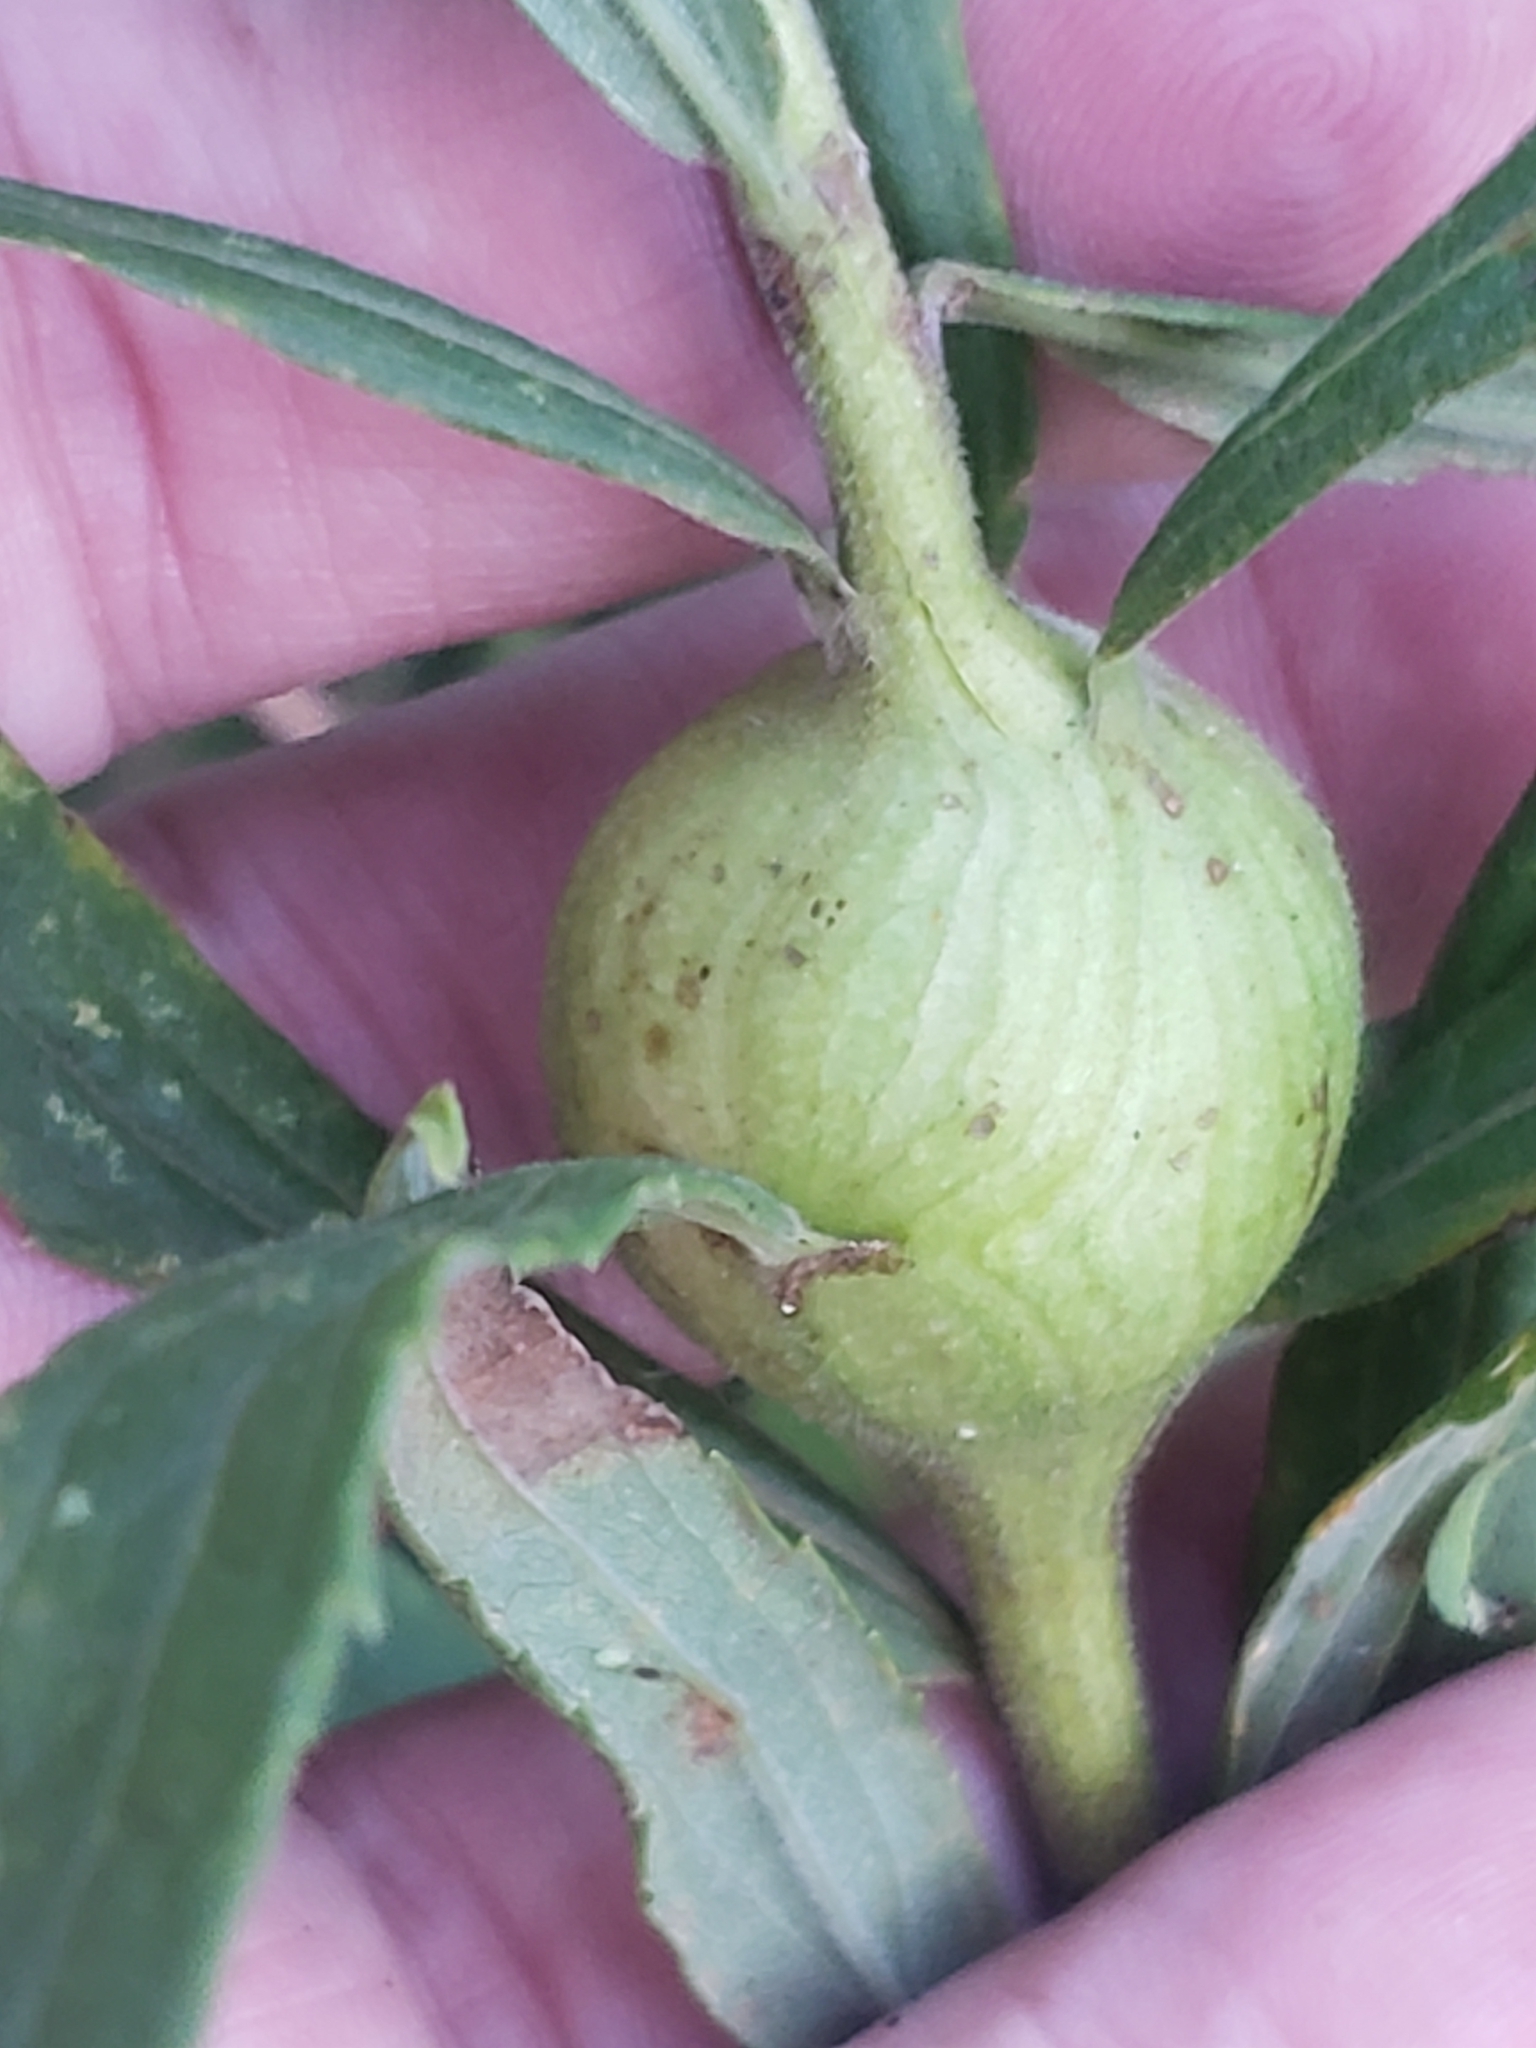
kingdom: Animalia
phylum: Arthropoda
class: Insecta
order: Diptera
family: Tephritidae
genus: Eurosta
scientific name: Eurosta solidaginis
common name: Goldenrod gall fly
